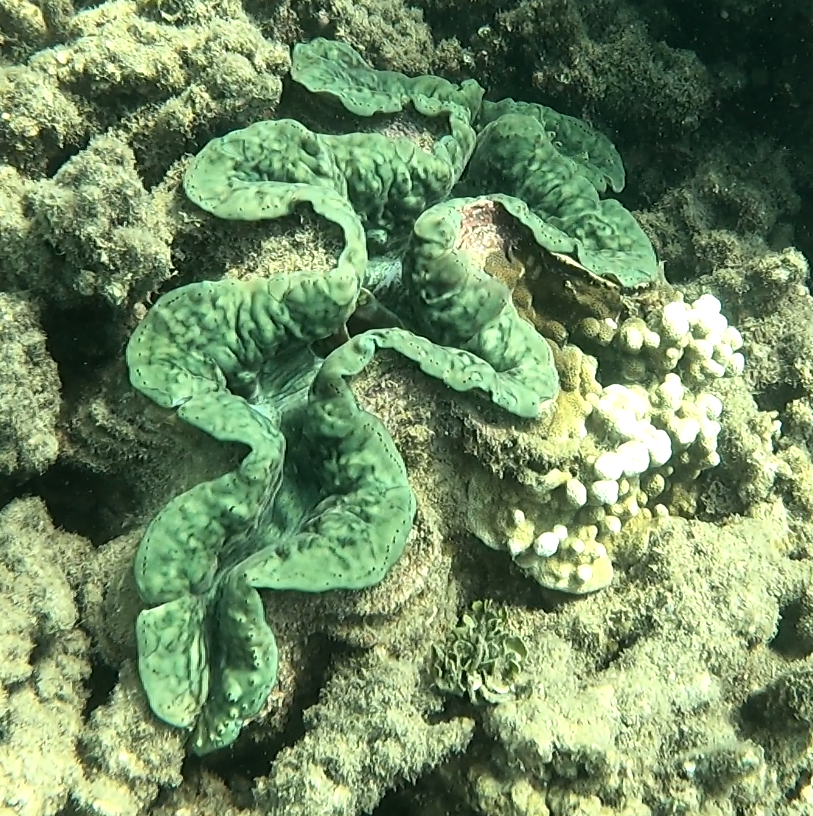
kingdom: Animalia
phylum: Mollusca
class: Bivalvia
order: Cardiida
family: Cardiidae
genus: Tridacna
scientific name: Tridacna maxima
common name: Small giant clam
